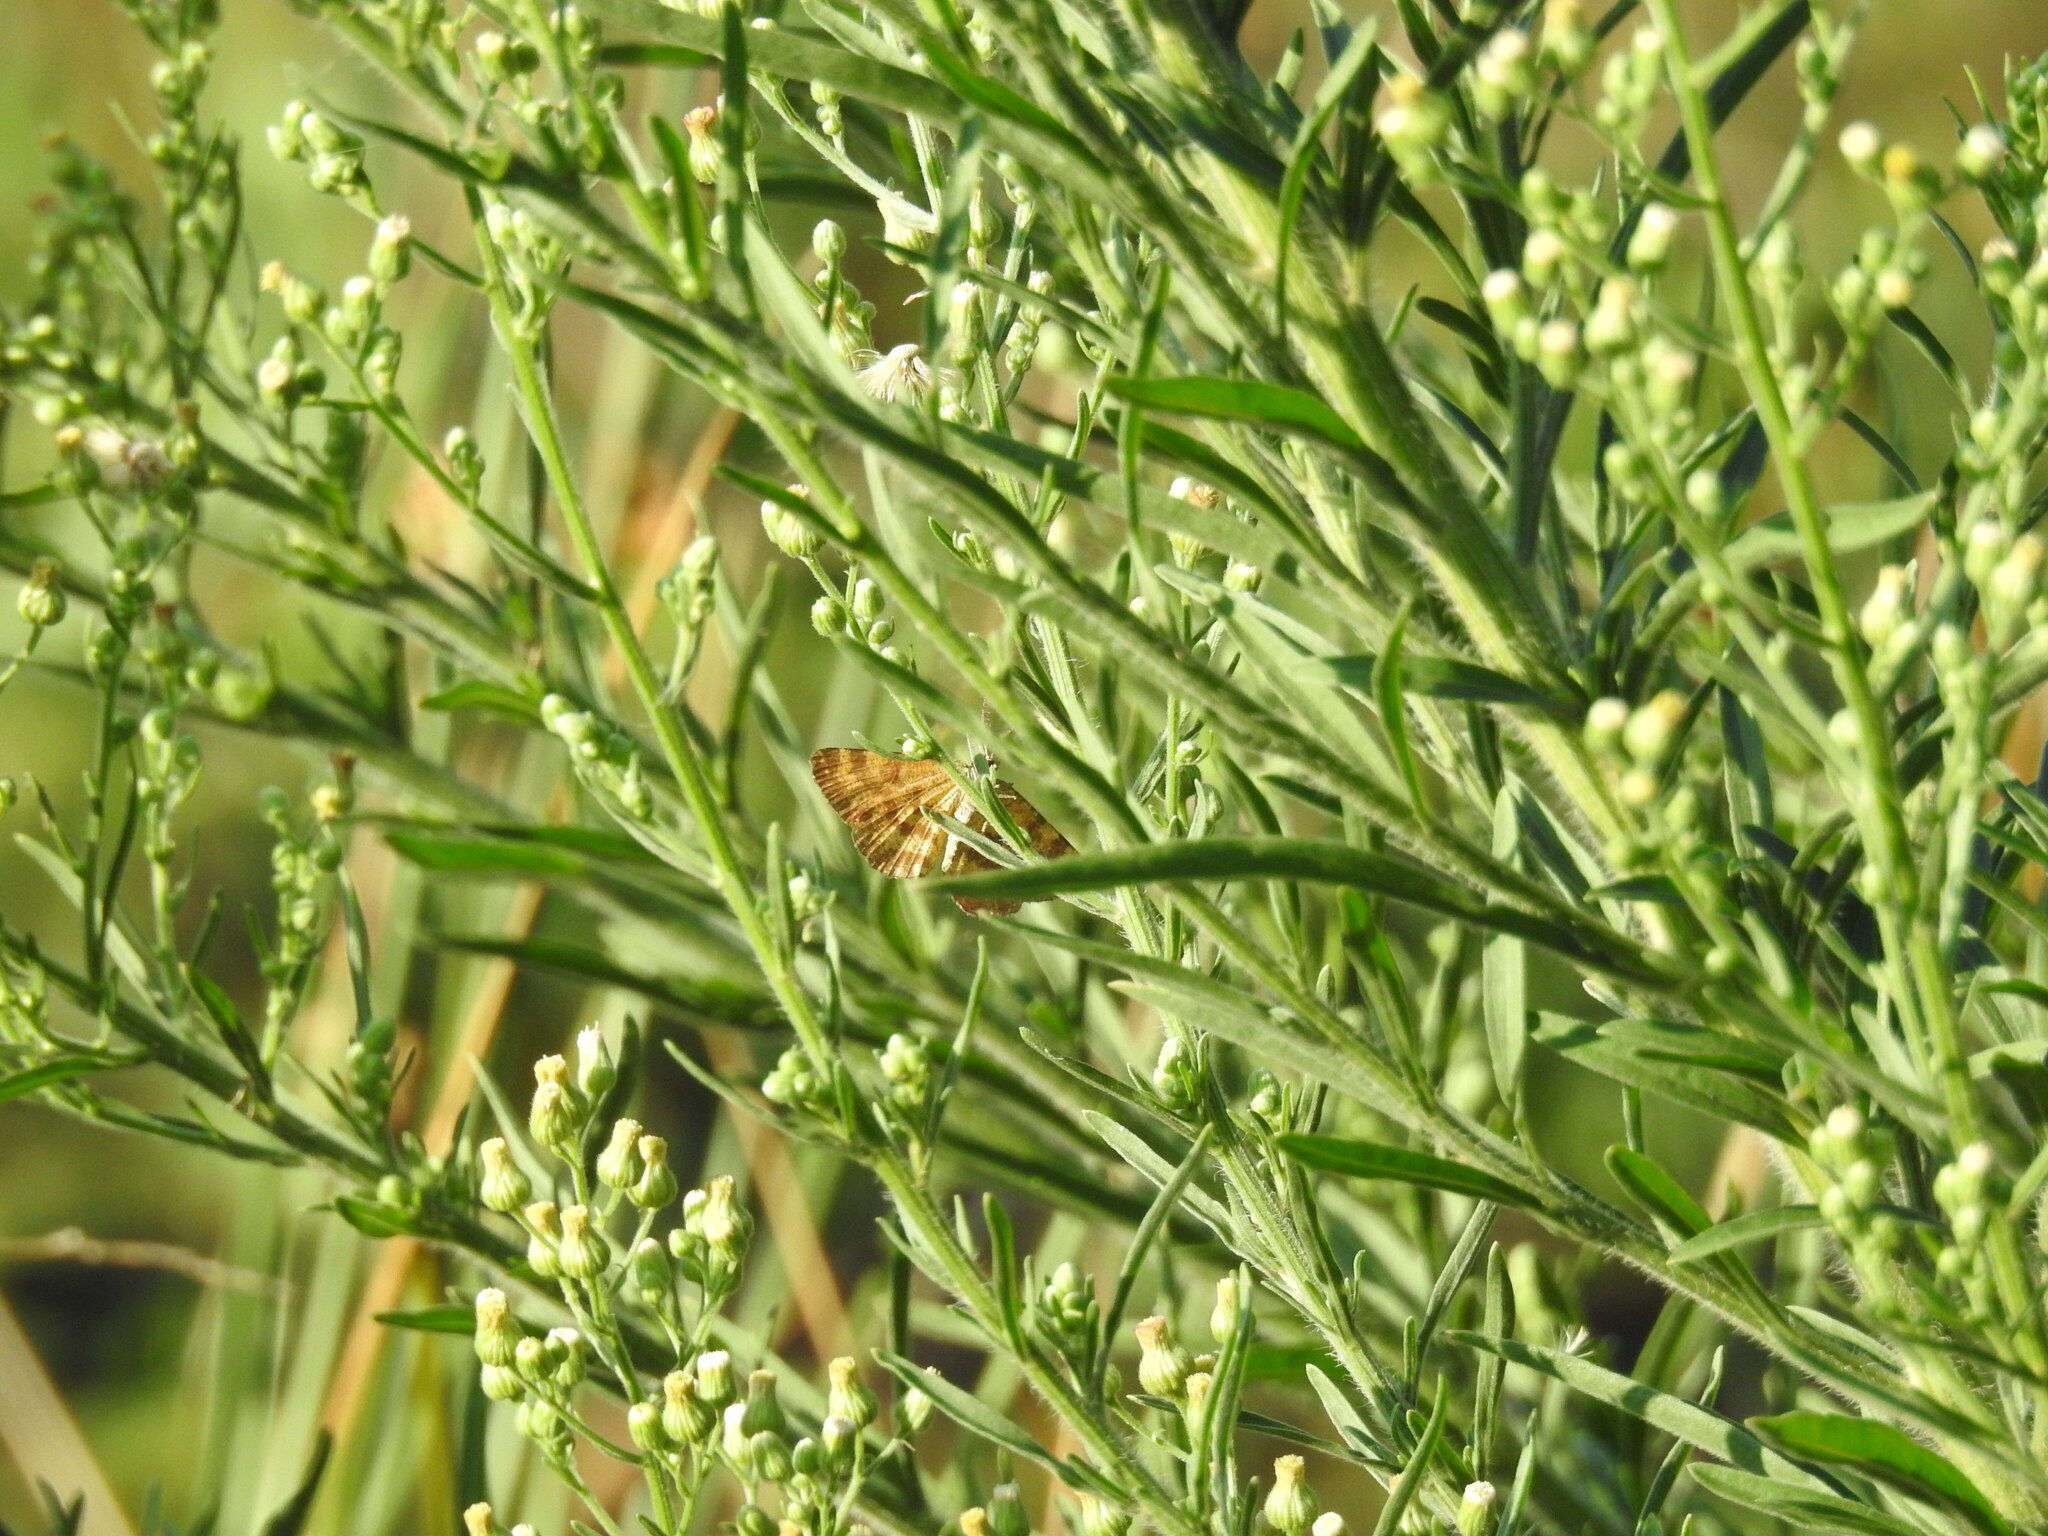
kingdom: Animalia
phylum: Arthropoda
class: Insecta
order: Lepidoptera
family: Geometridae
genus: Ematurga
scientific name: Ematurga atomaria
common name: Common heath
